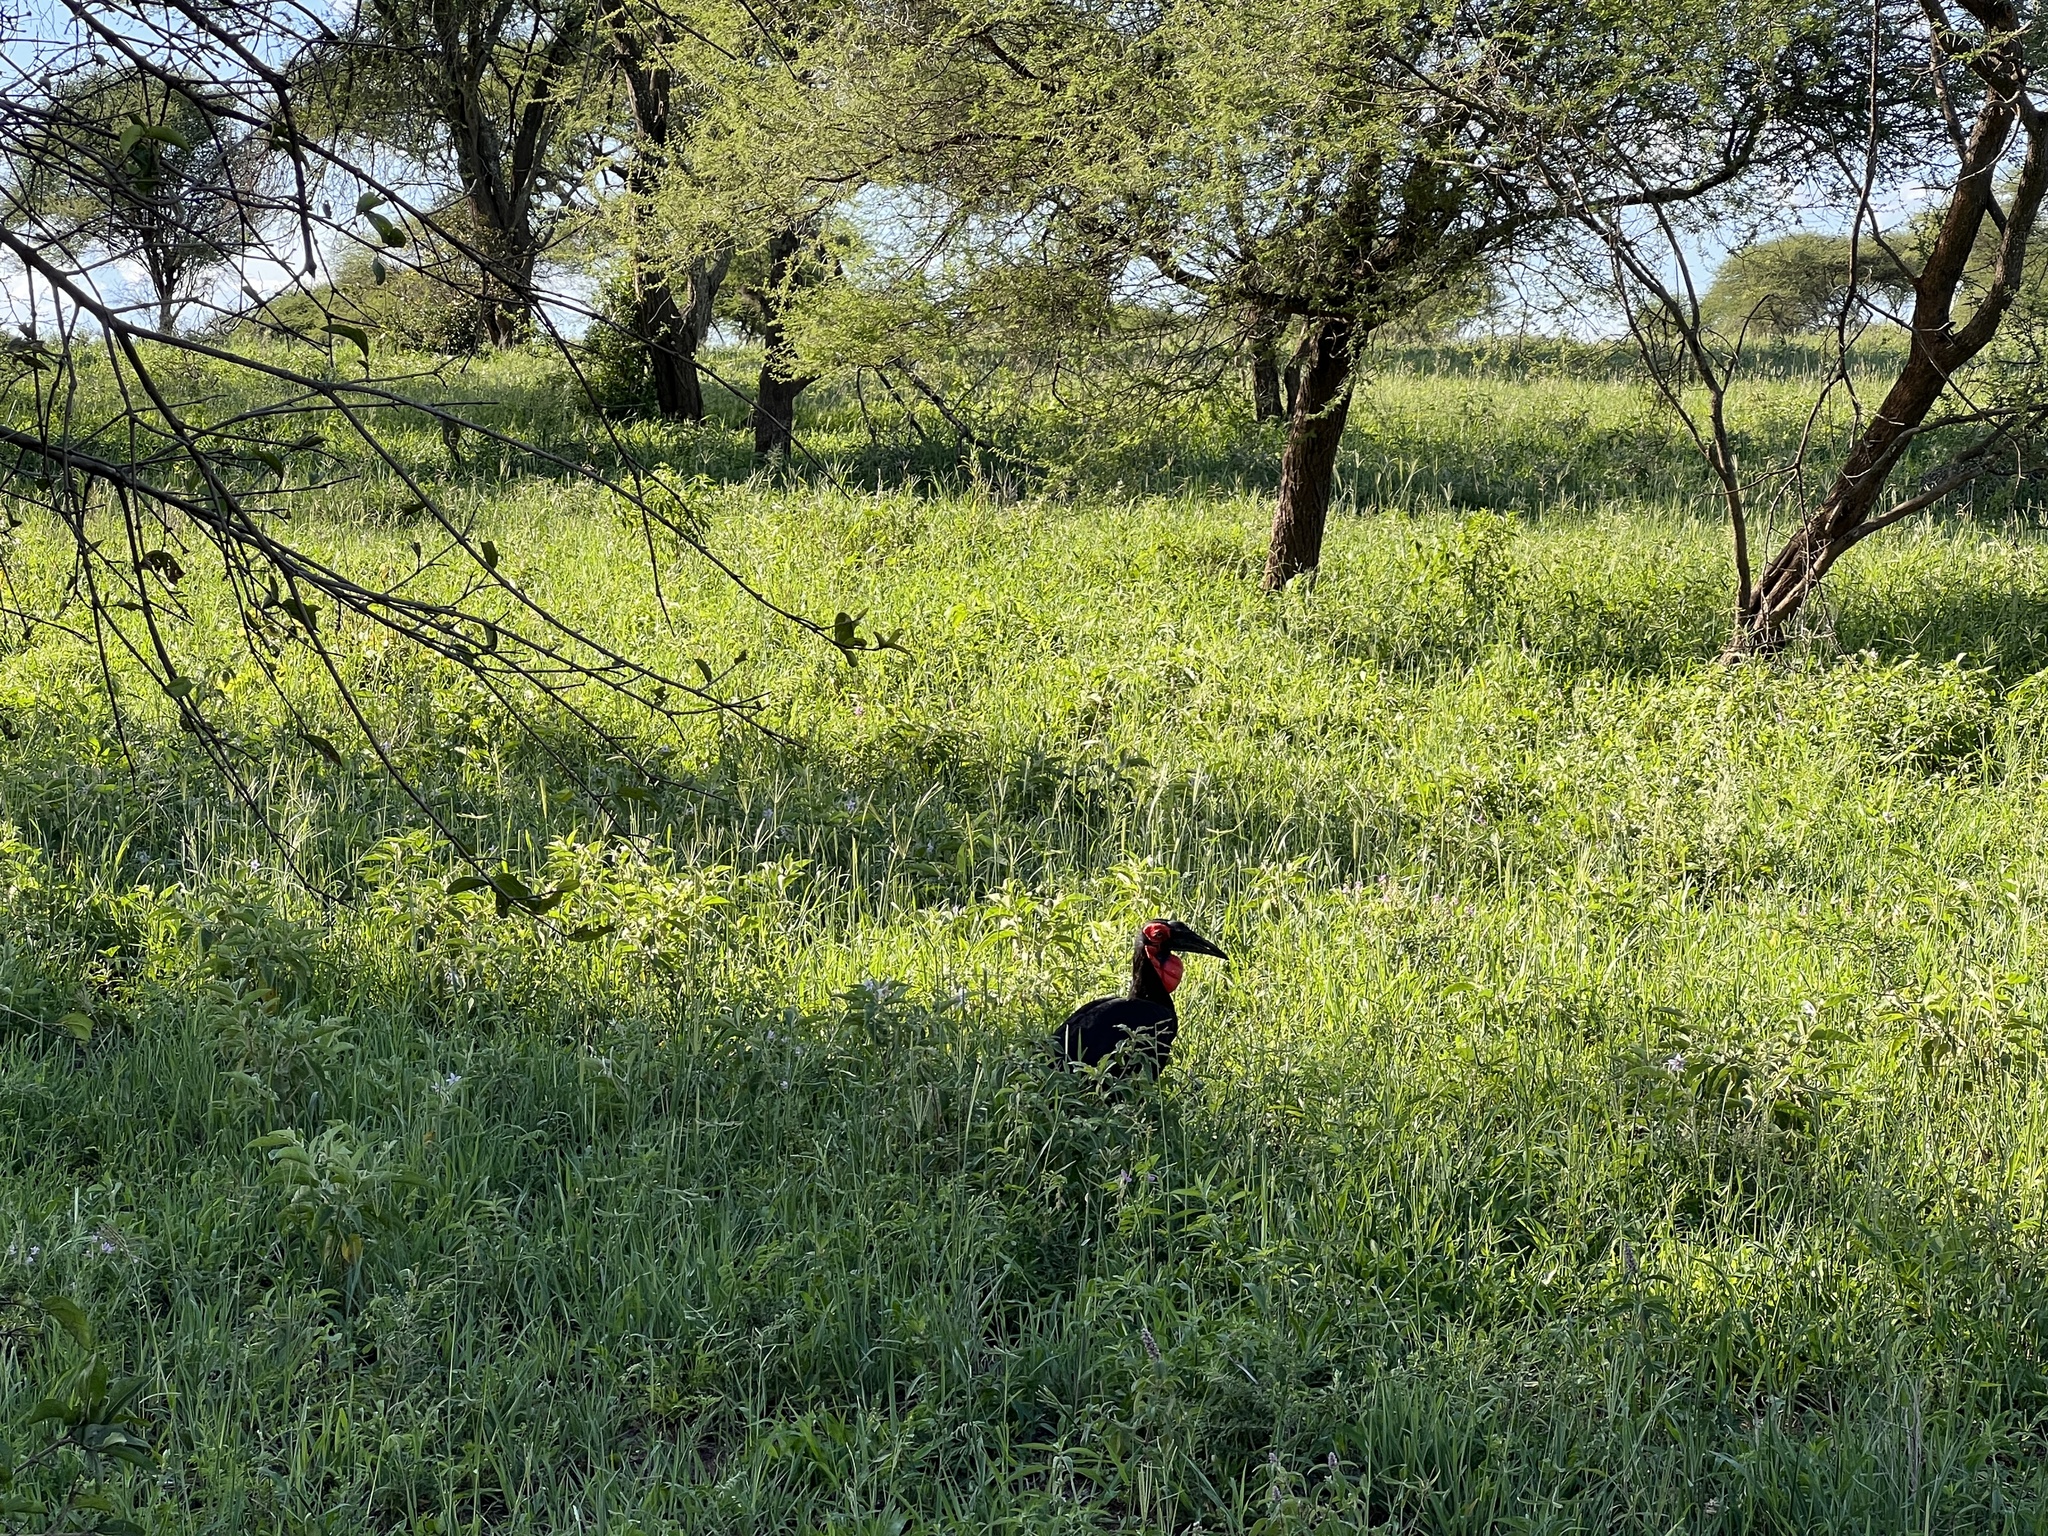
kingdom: Animalia
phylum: Chordata
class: Aves
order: Bucerotiformes
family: Bucorvidae
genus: Bucorvus
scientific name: Bucorvus leadbeateri
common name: Southern ground-hornbill
